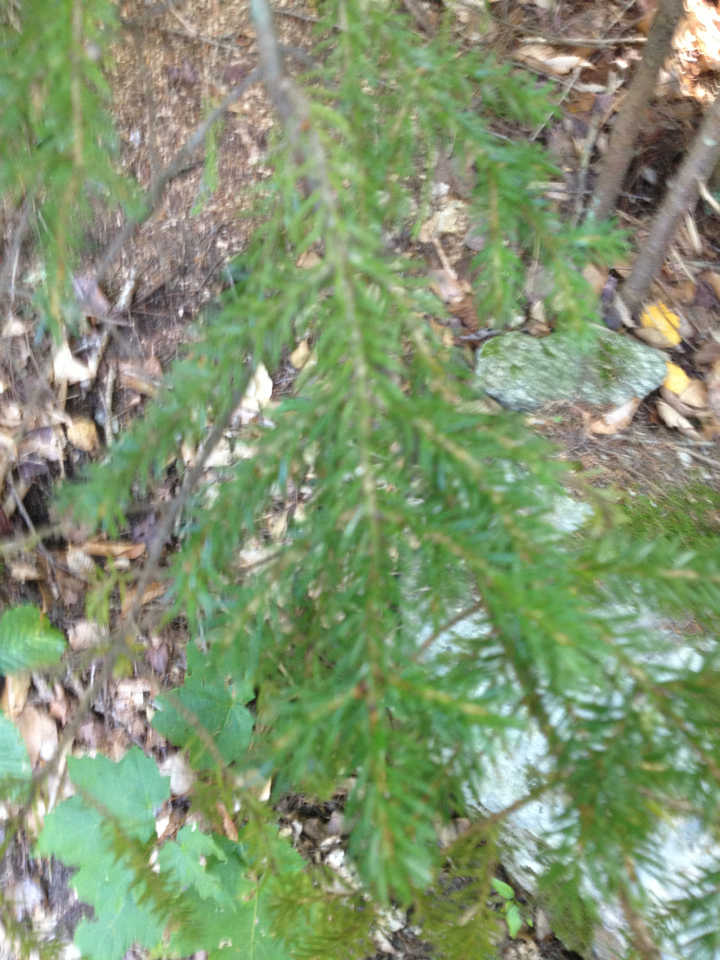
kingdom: Plantae
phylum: Tracheophyta
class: Pinopsida
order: Pinales
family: Pinaceae
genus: Picea
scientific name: Picea rubens
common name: Red spruce
